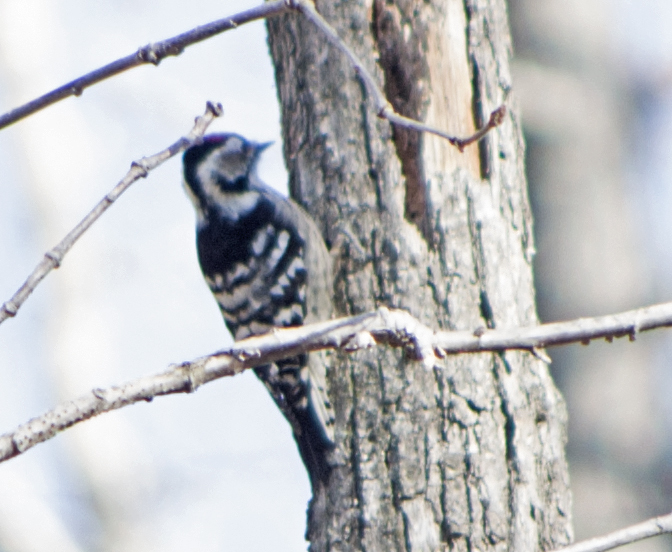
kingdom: Animalia
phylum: Chordata
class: Aves
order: Piciformes
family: Picidae
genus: Dryobates
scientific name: Dryobates minor
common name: Lesser spotted woodpecker
